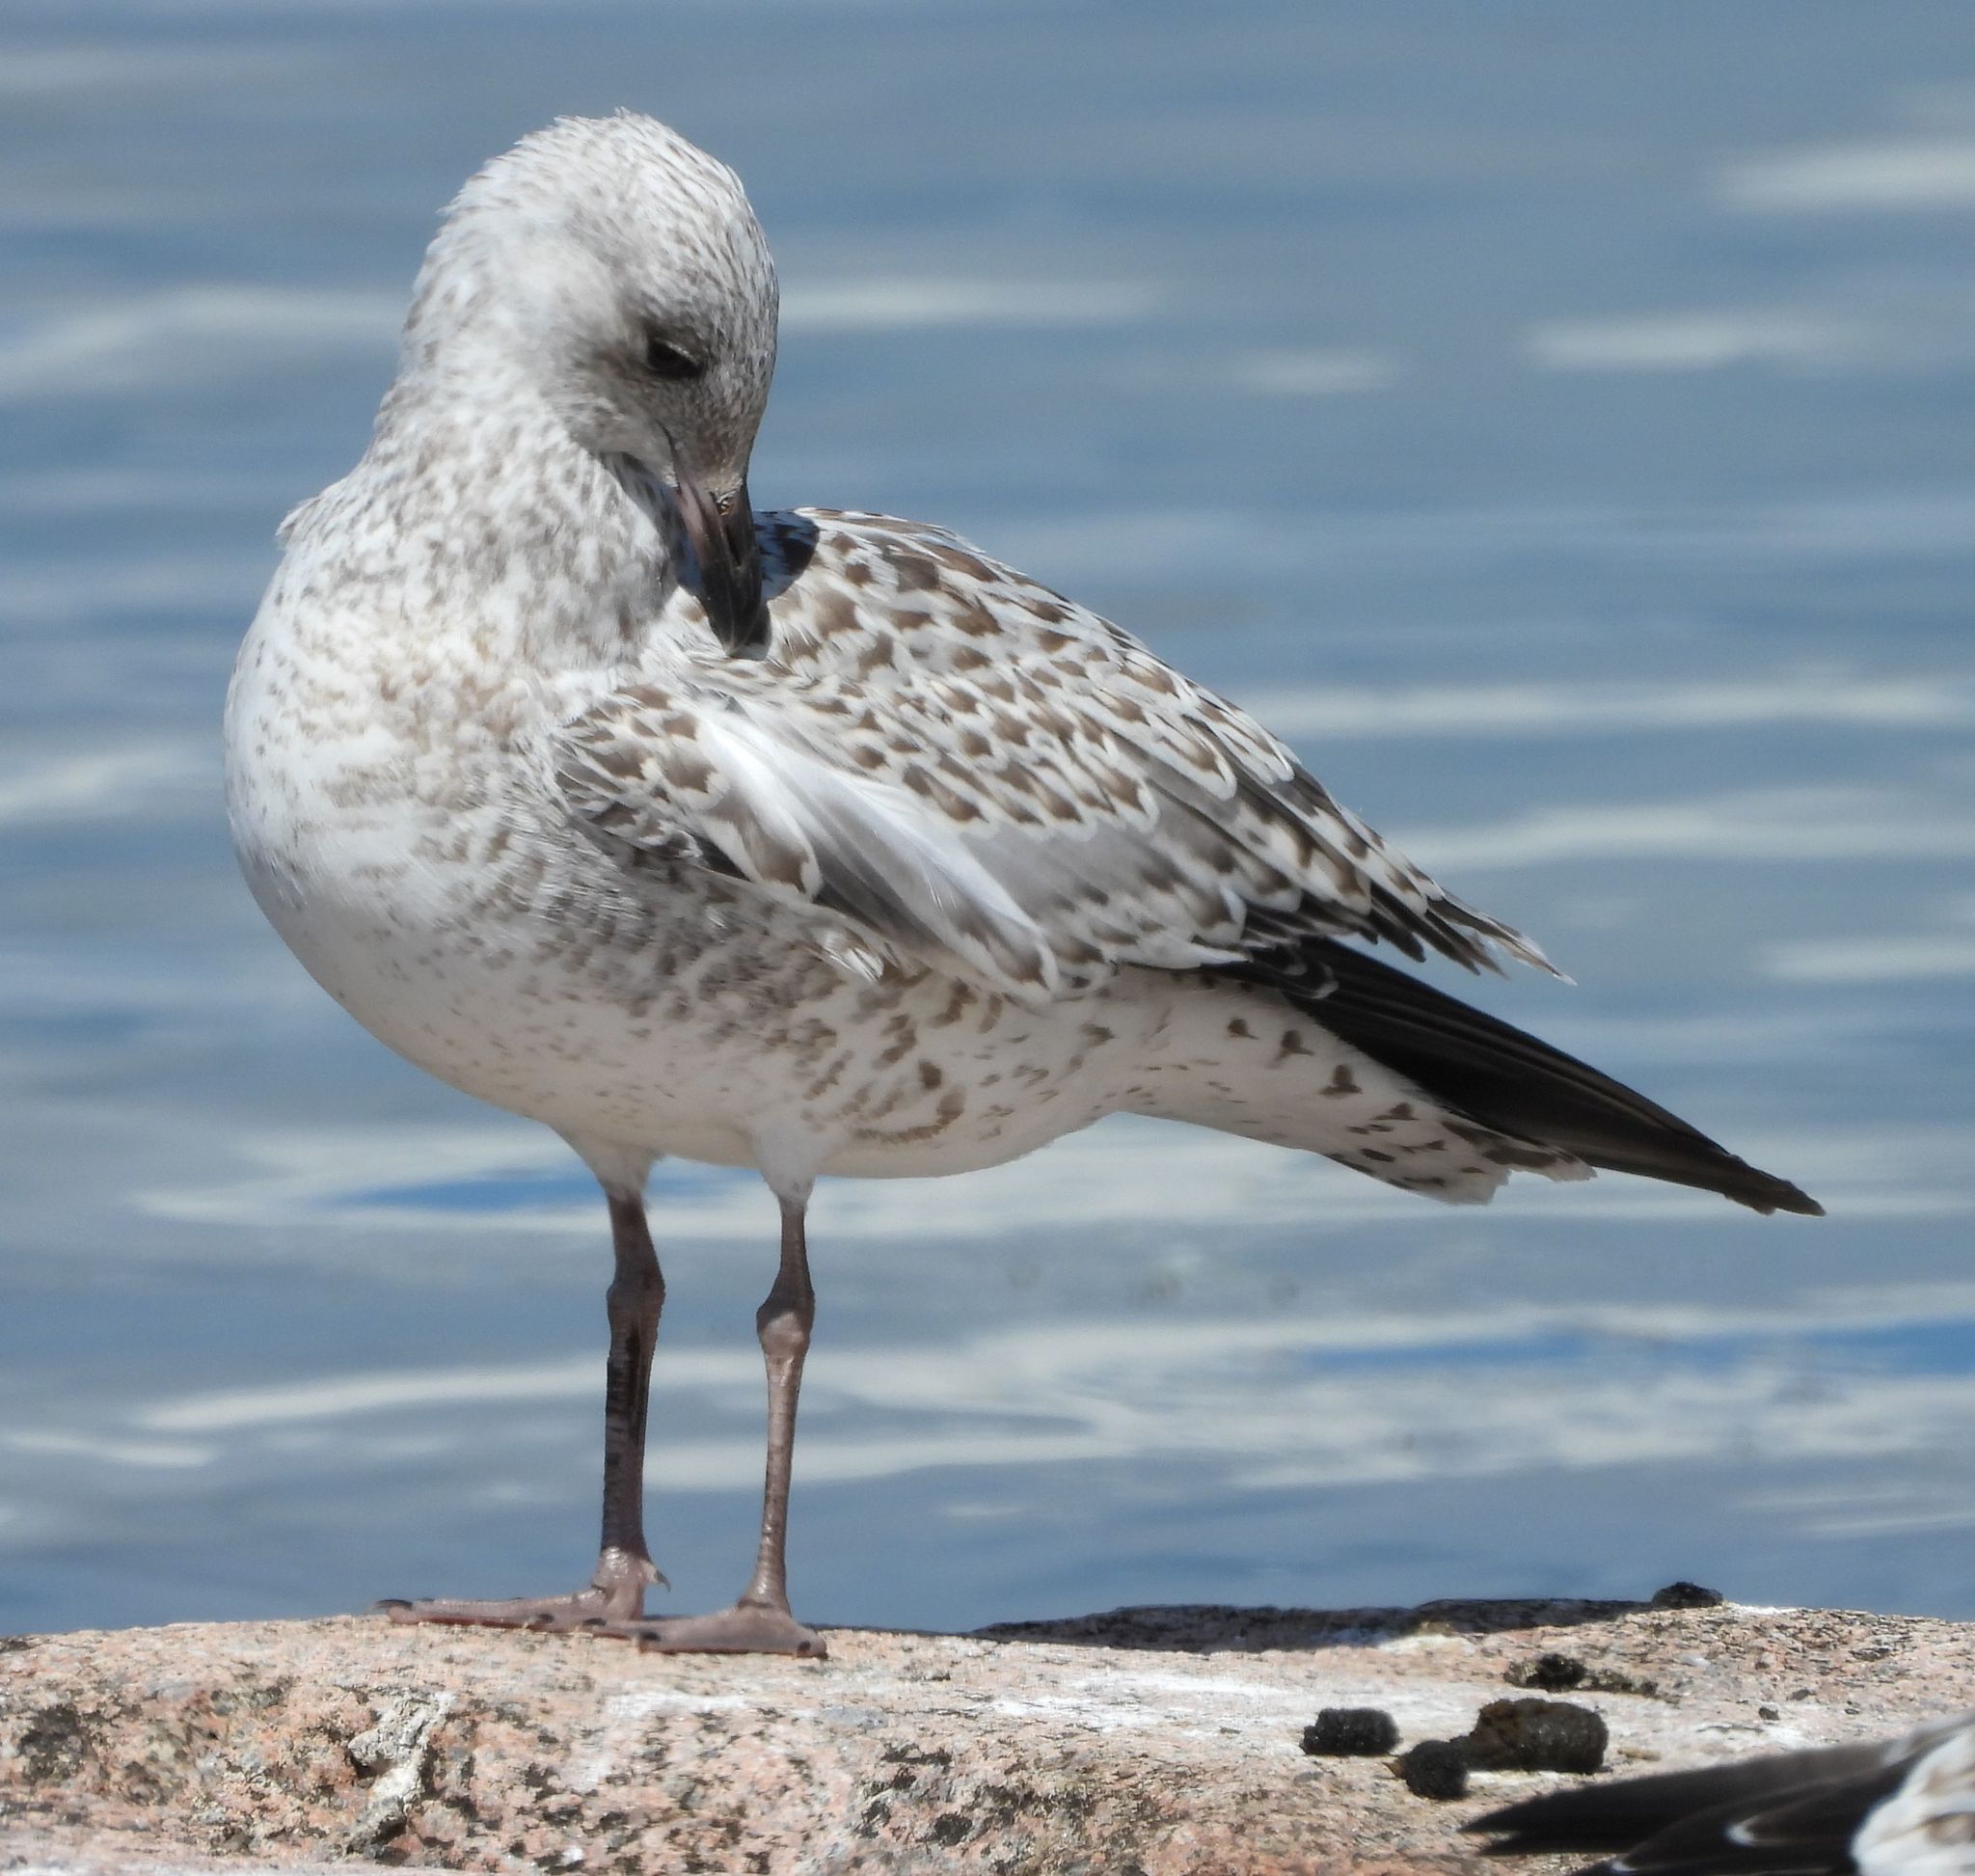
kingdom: Animalia
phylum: Chordata
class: Aves
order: Charadriiformes
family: Laridae
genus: Larus
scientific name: Larus delawarensis
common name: Ring-billed gull
